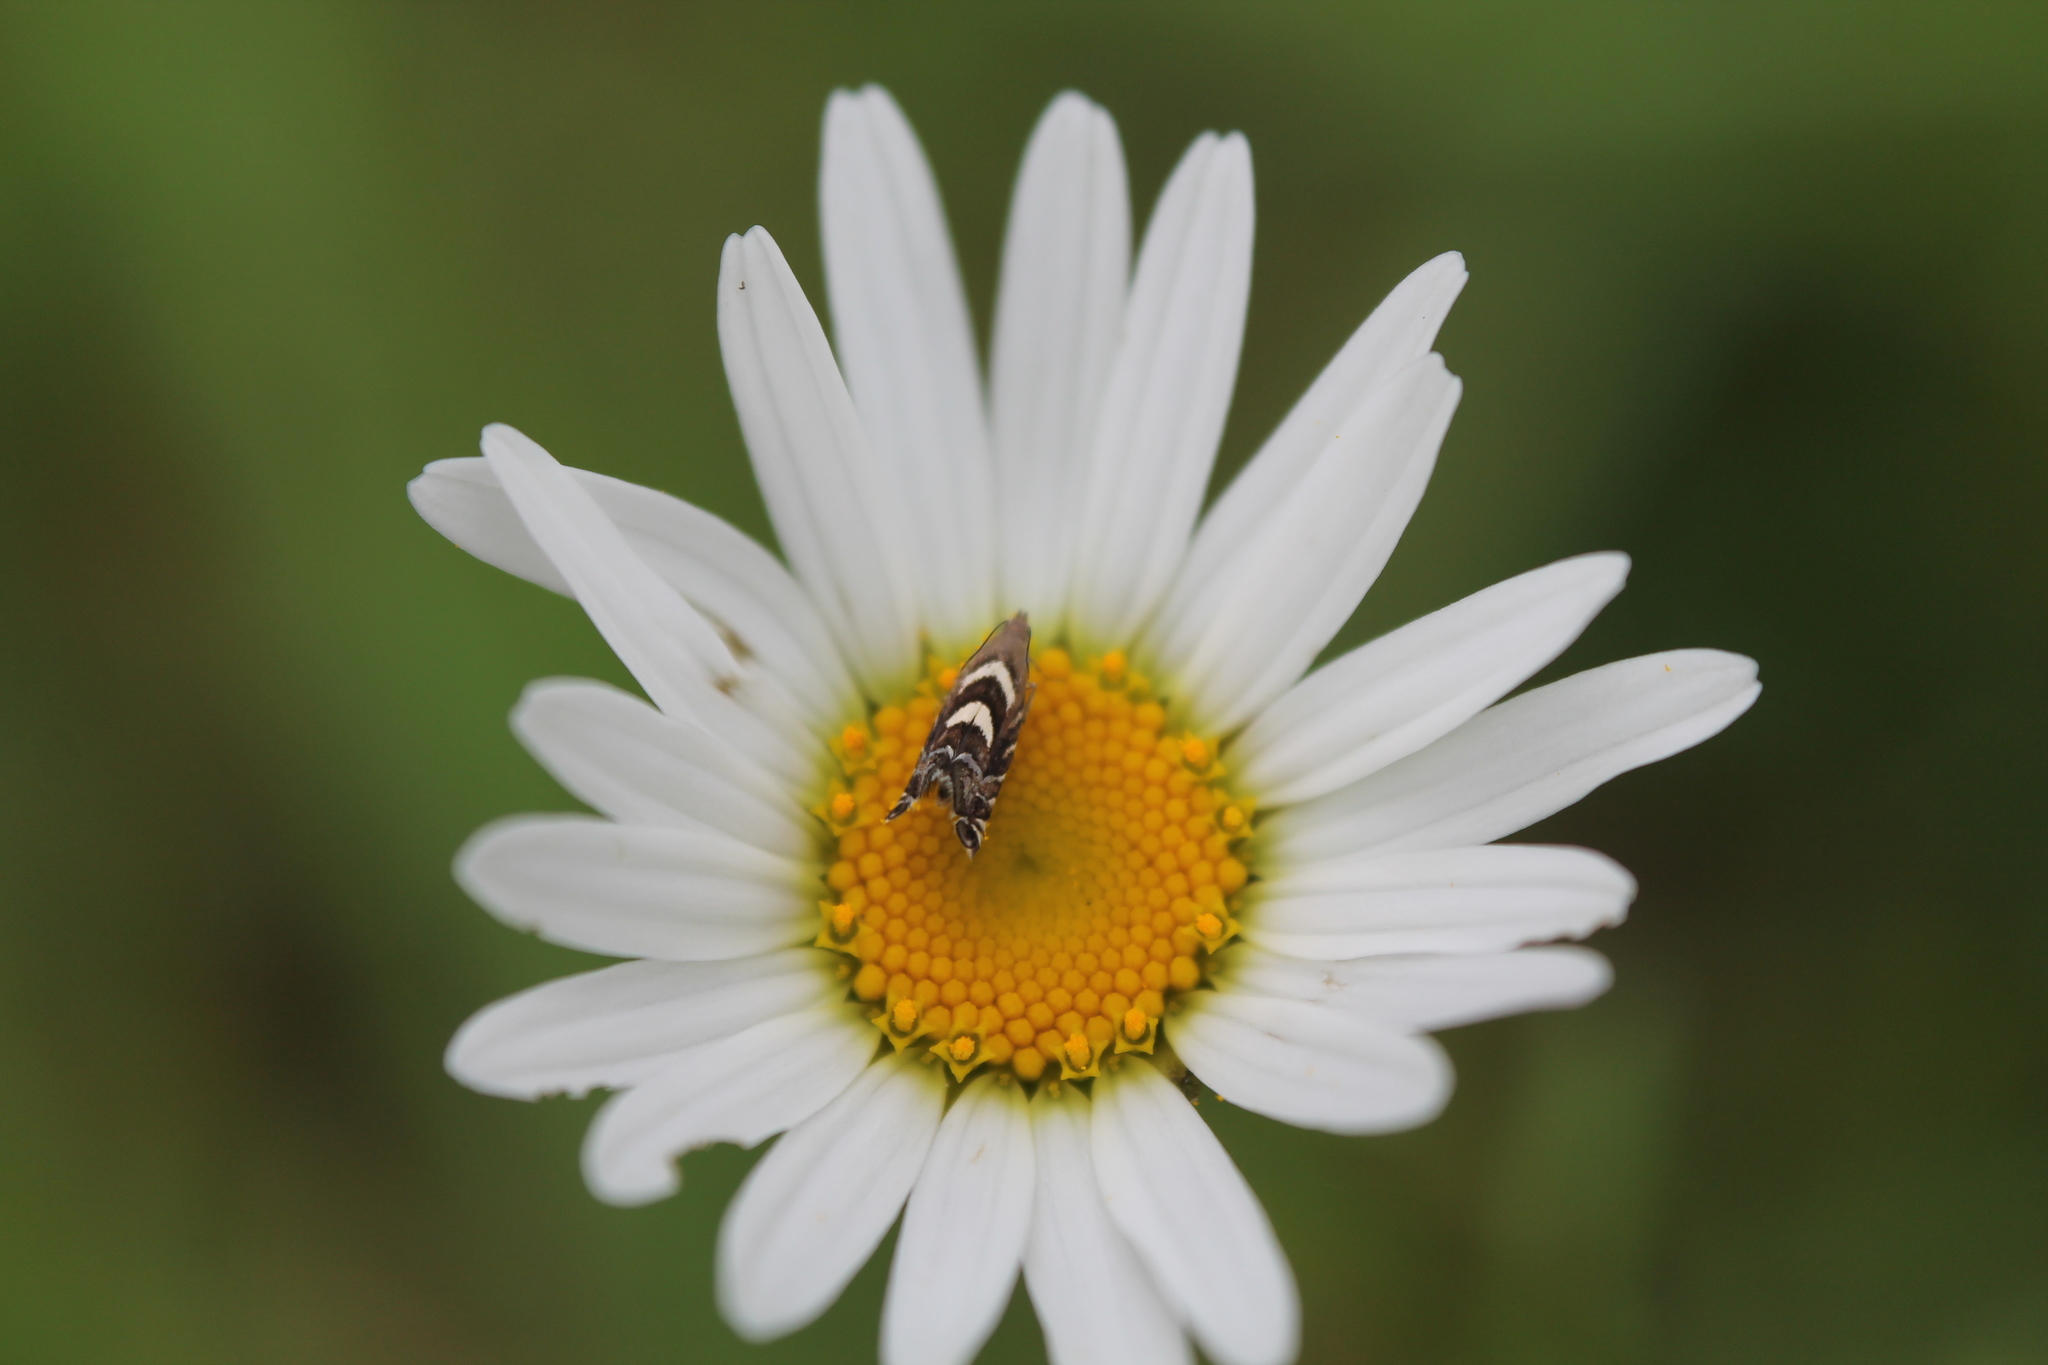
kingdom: Animalia
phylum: Arthropoda
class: Insecta
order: Lepidoptera
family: Glyphipterigidae
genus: Glyphipterix
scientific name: Glyphipterix asteronota
